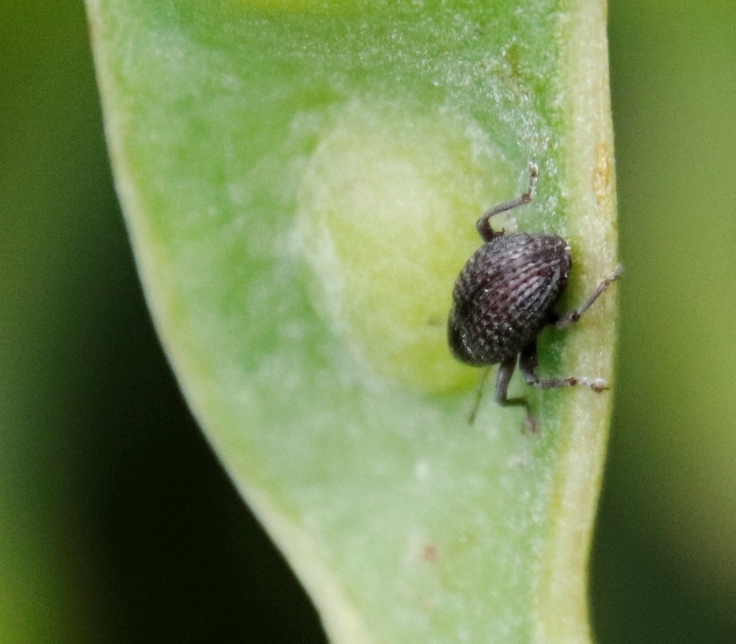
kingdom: Plantae
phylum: Tracheophyta
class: Magnoliopsida
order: Fabales
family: Fabaceae
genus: Acacia
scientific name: Acacia elata
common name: Cedar wattle
